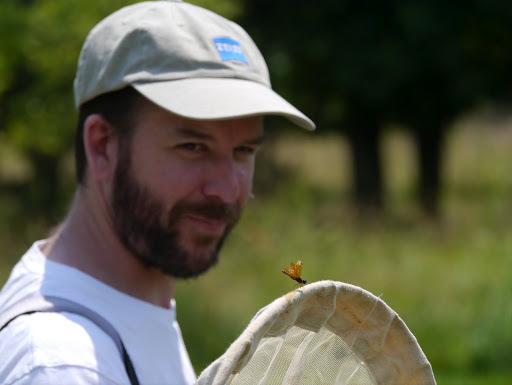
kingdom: Animalia
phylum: Arthropoda
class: Insecta
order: Odonata
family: Libellulidae
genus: Perithemis
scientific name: Perithemis tenera
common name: Eastern amberwing
